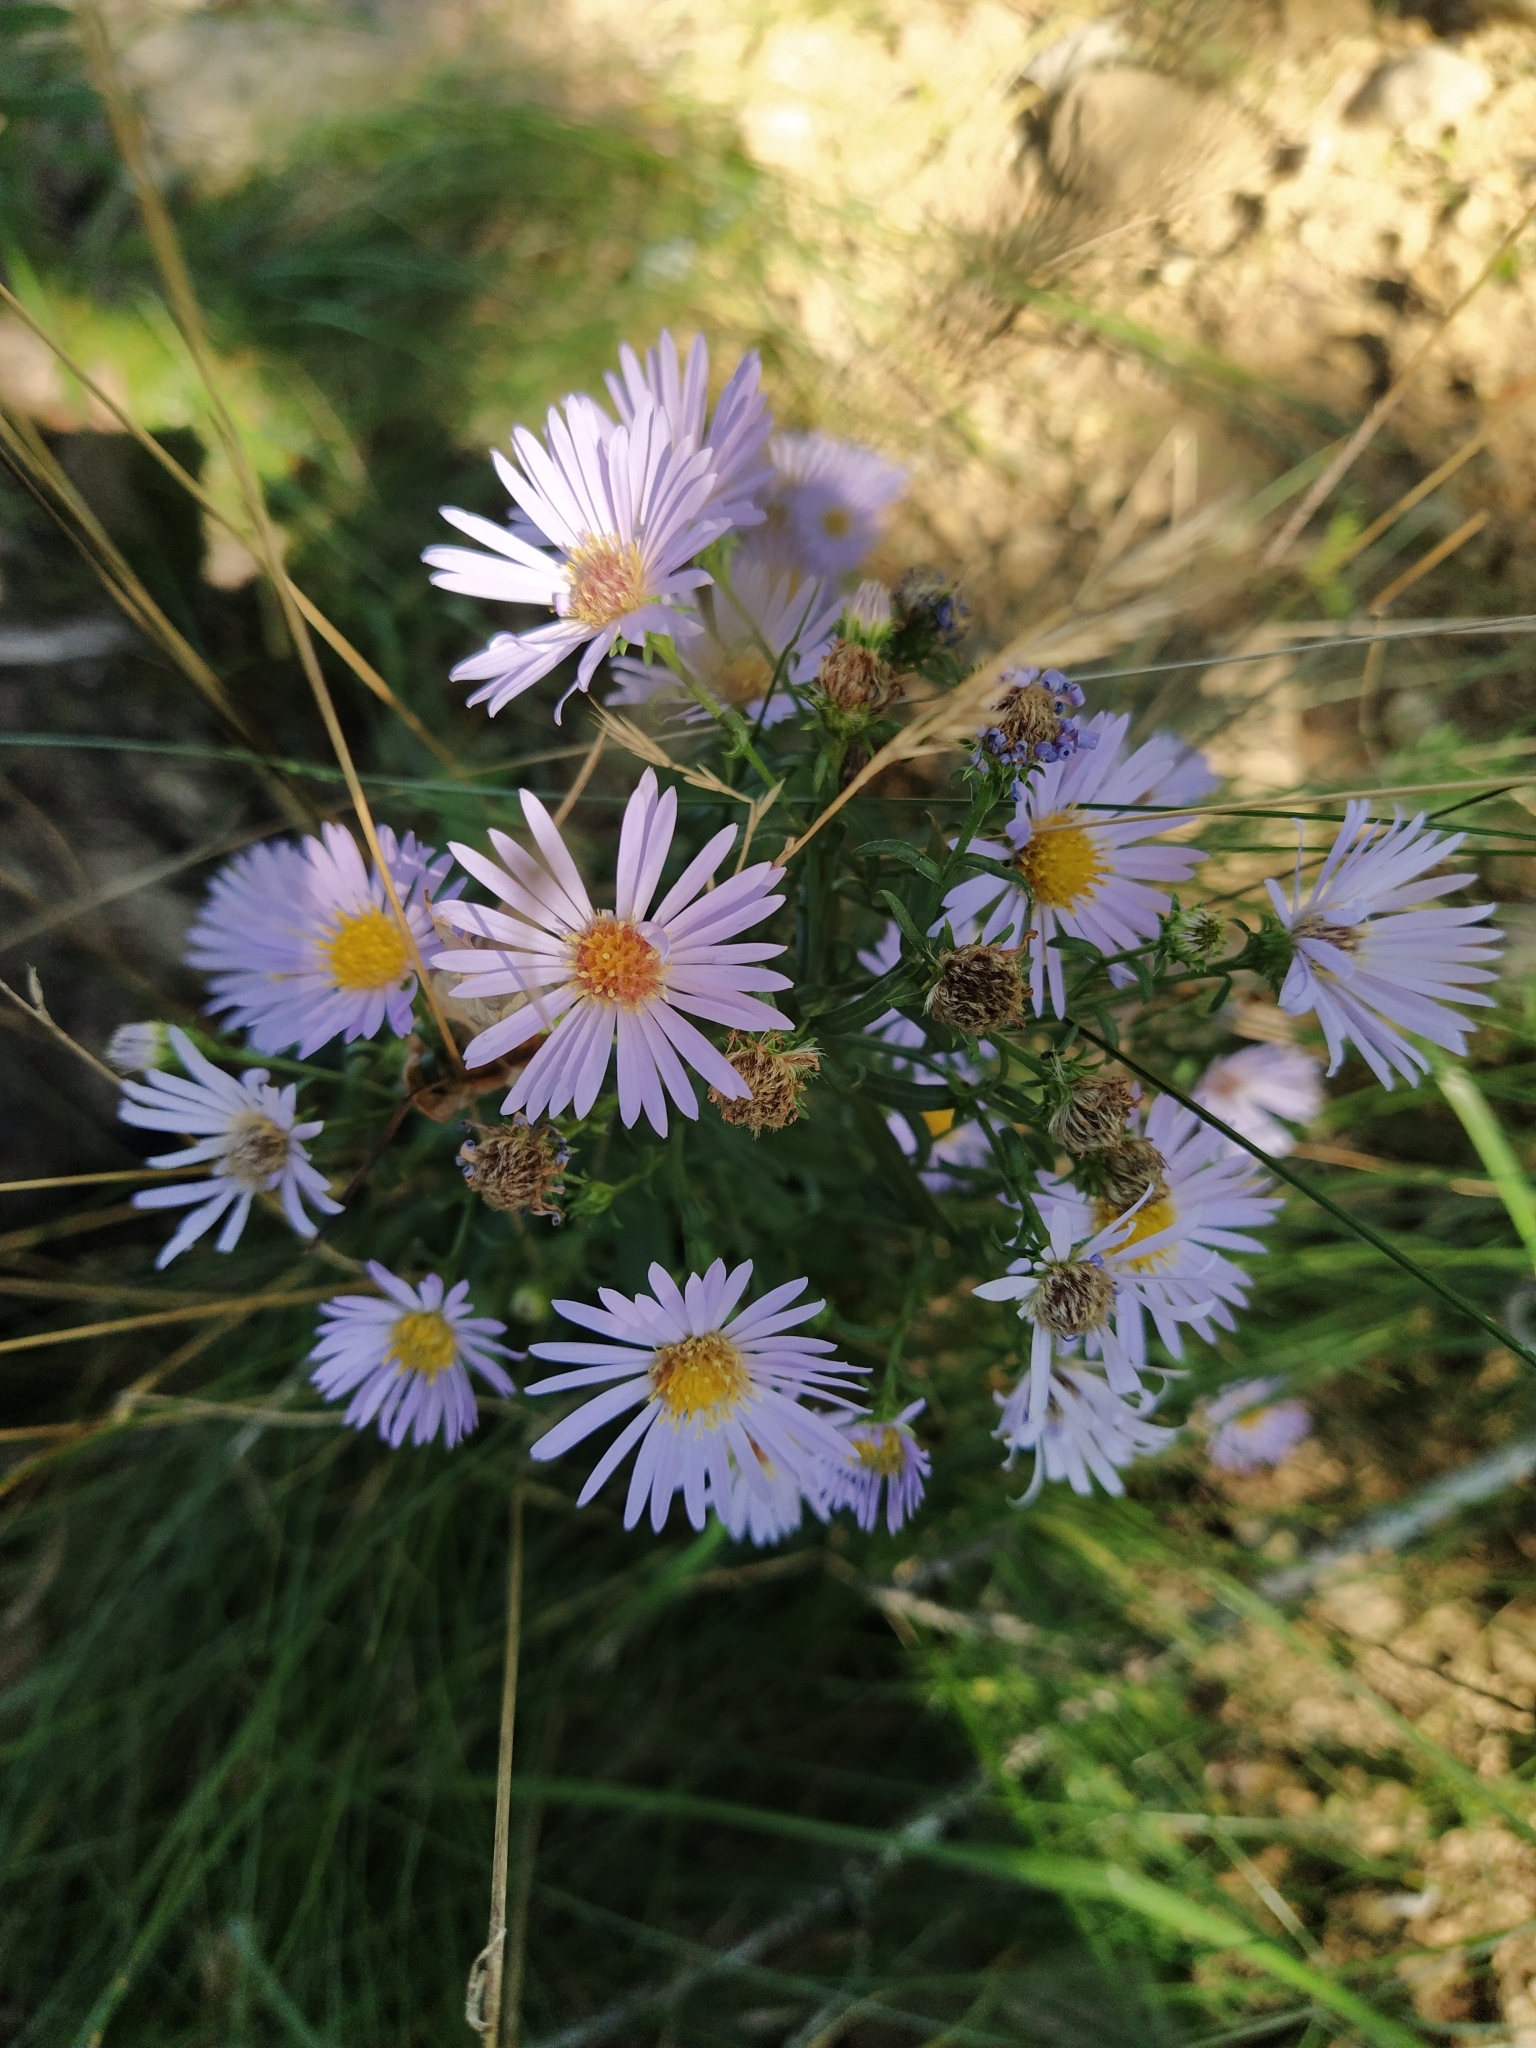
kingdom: Plantae
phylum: Tracheophyta
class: Magnoliopsida
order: Asterales
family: Asteraceae
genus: Symphyotrichum
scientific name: Symphyotrichum novi-belgii
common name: Michaelmas daisy
